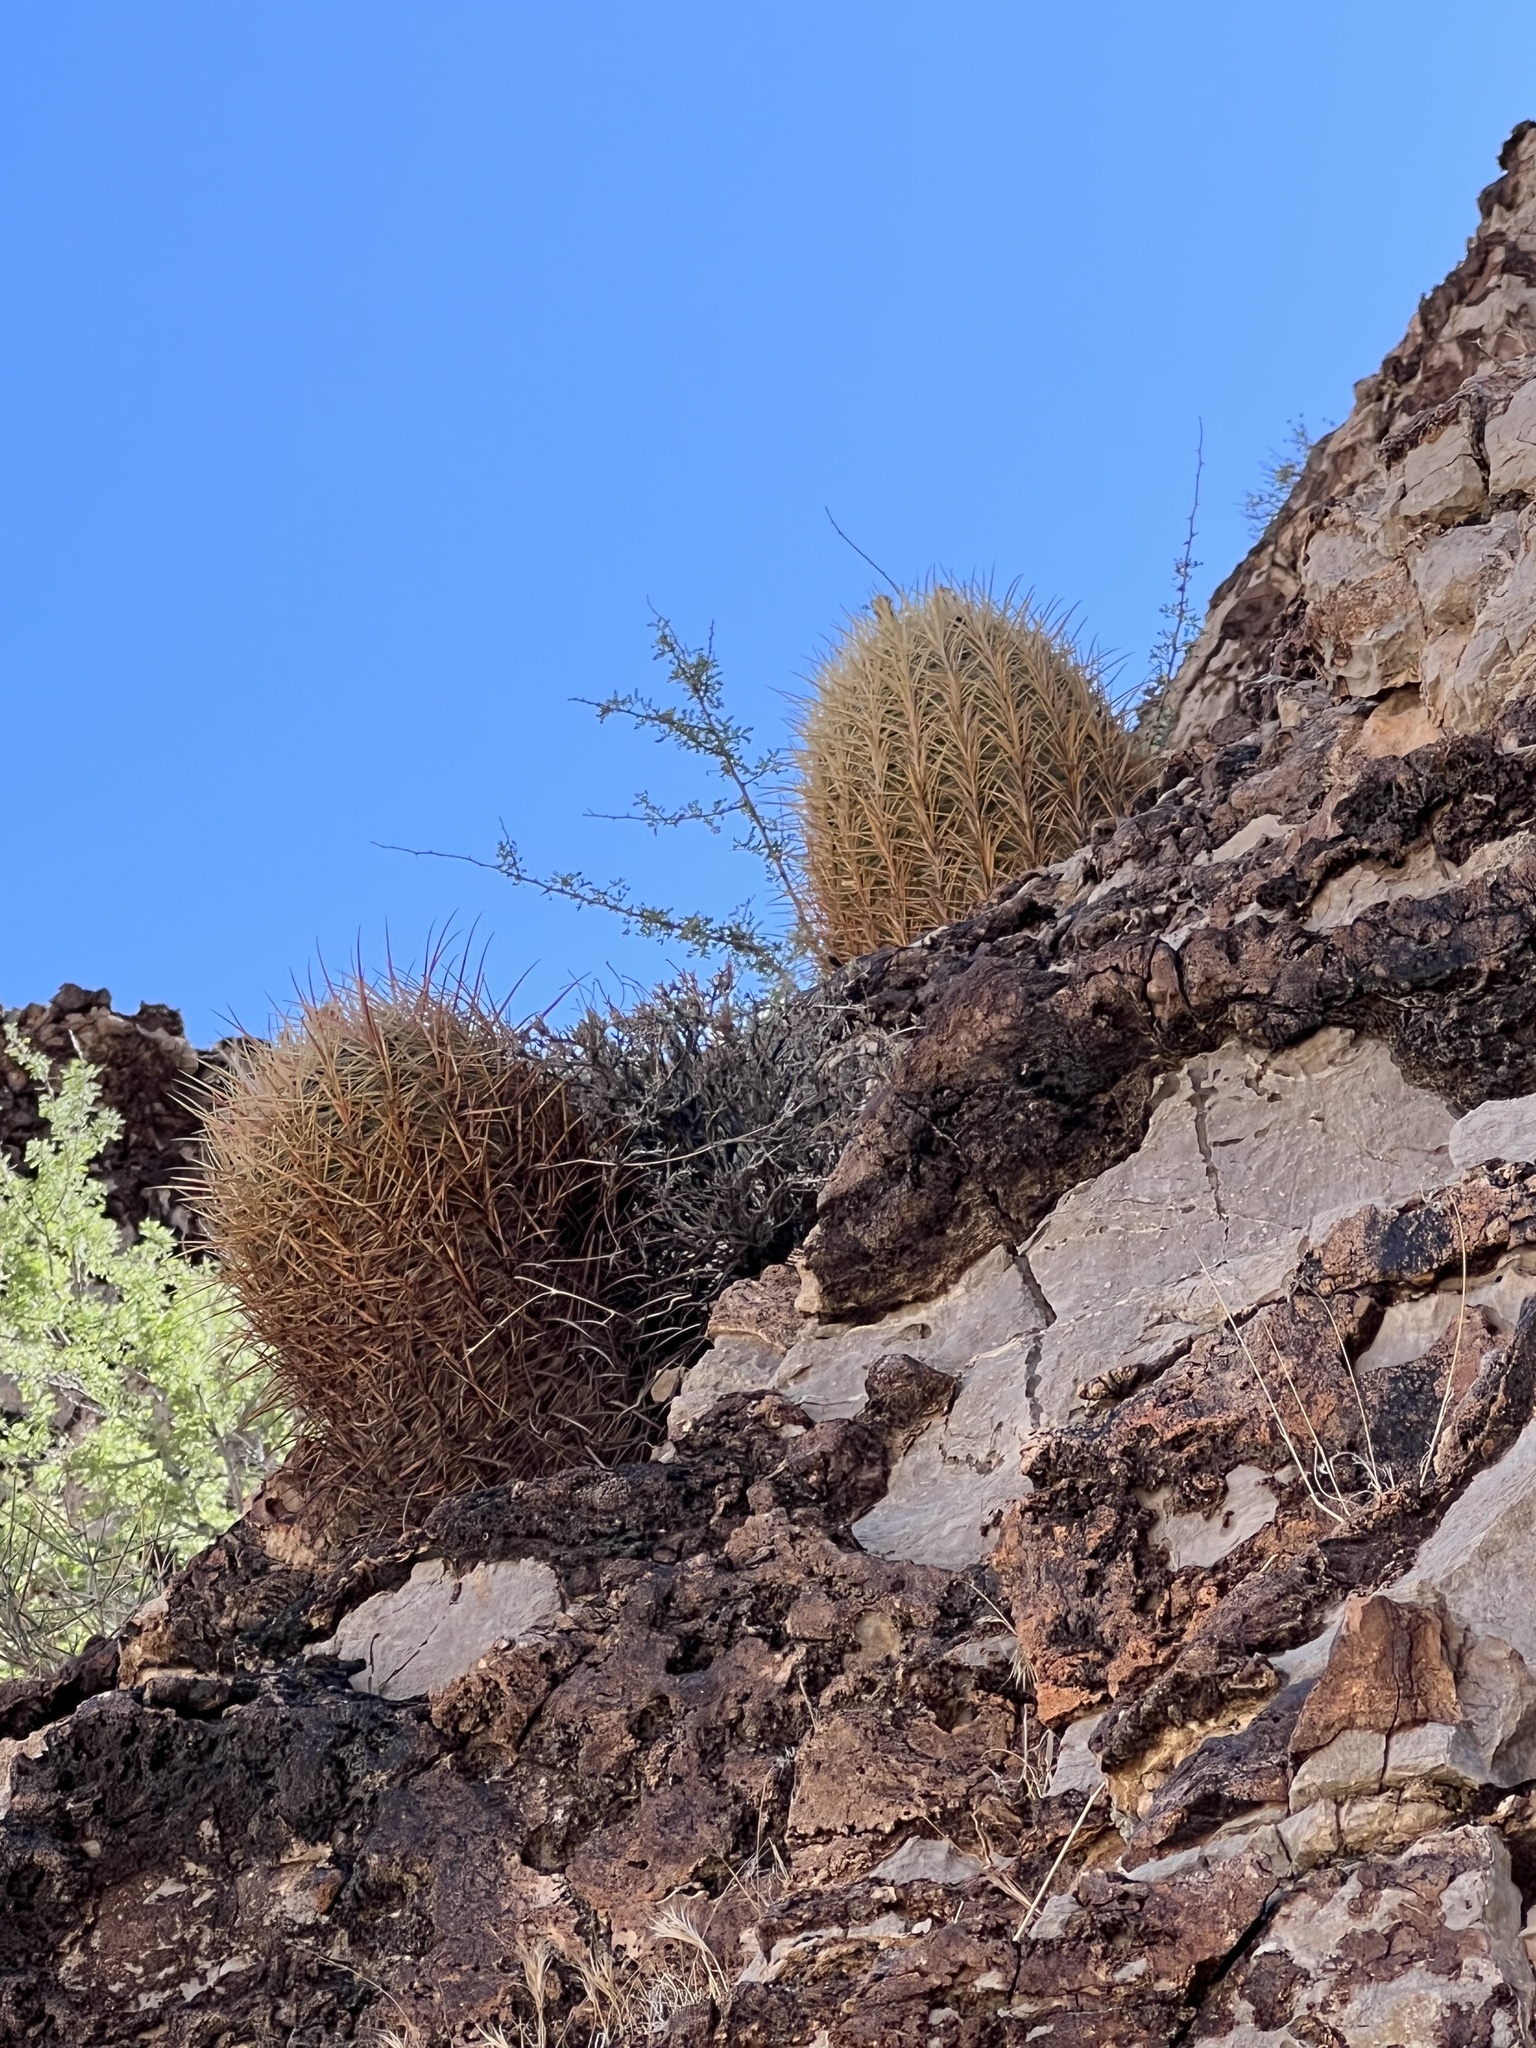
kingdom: Plantae
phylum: Tracheophyta
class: Magnoliopsida
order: Caryophyllales
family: Cactaceae
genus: Ferocactus
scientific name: Ferocactus cylindraceus
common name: California barrel cactus
